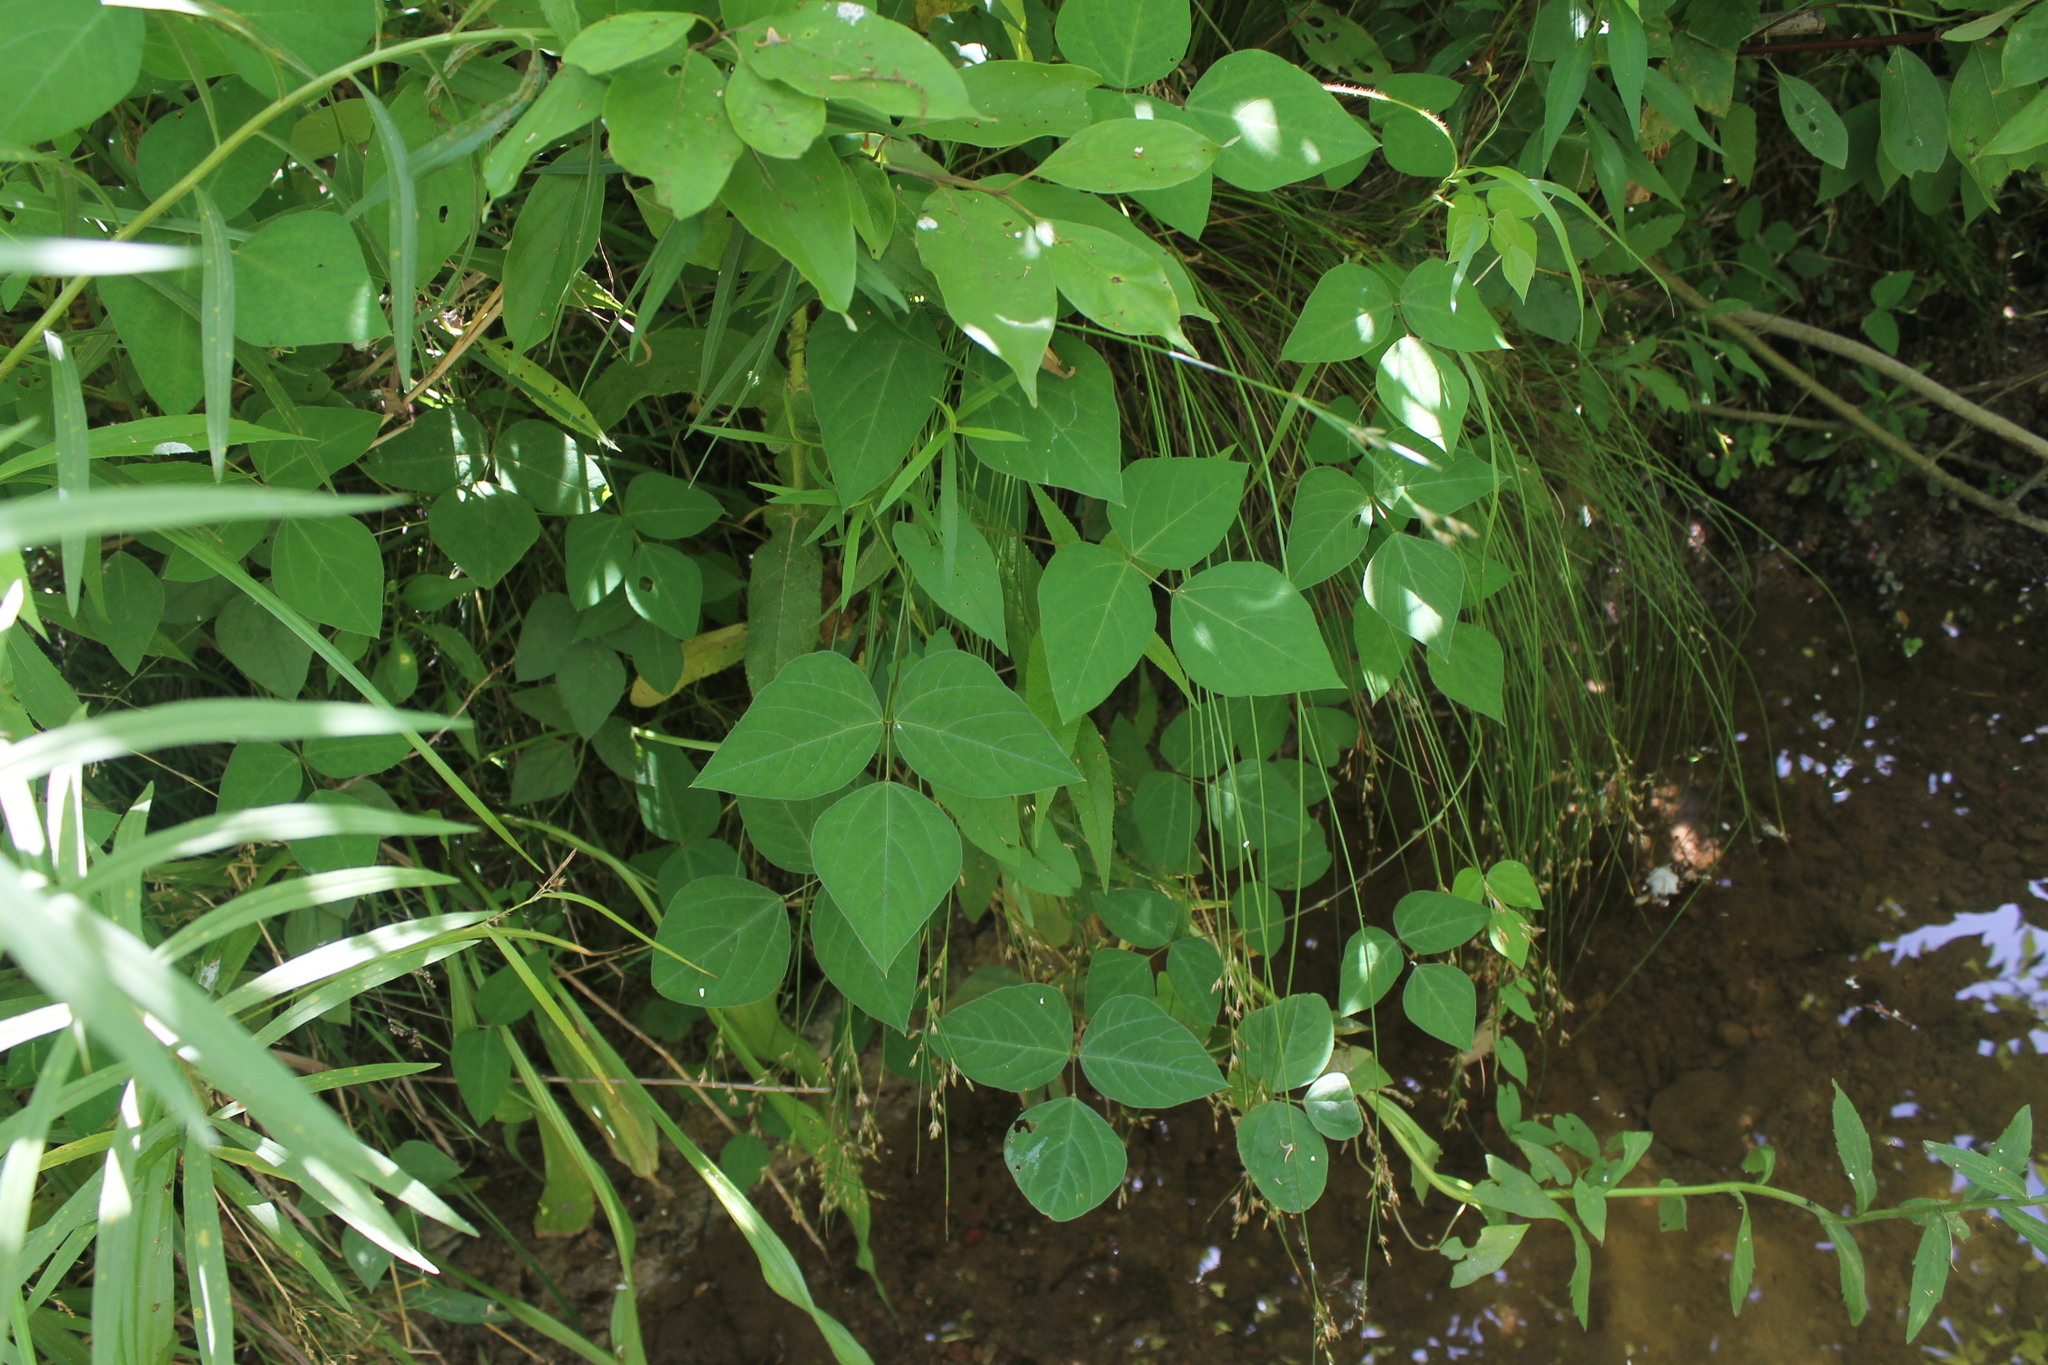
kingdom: Plantae
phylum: Tracheophyta
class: Magnoliopsida
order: Fabales
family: Fabaceae
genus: Amphicarpaea
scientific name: Amphicarpaea bracteata
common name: American hog peanut
